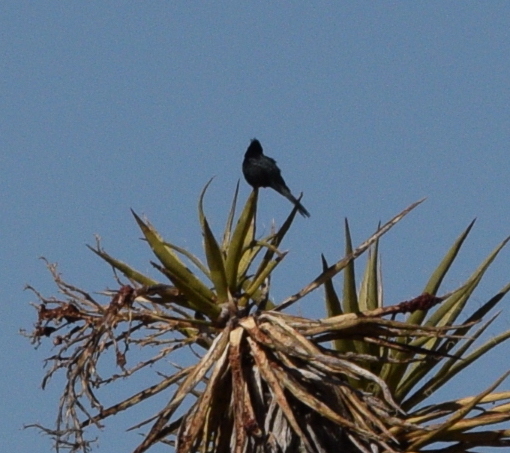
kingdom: Animalia
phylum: Chordata
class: Aves
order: Passeriformes
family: Ptilogonatidae
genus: Phainopepla
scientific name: Phainopepla nitens
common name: Phainopepla
